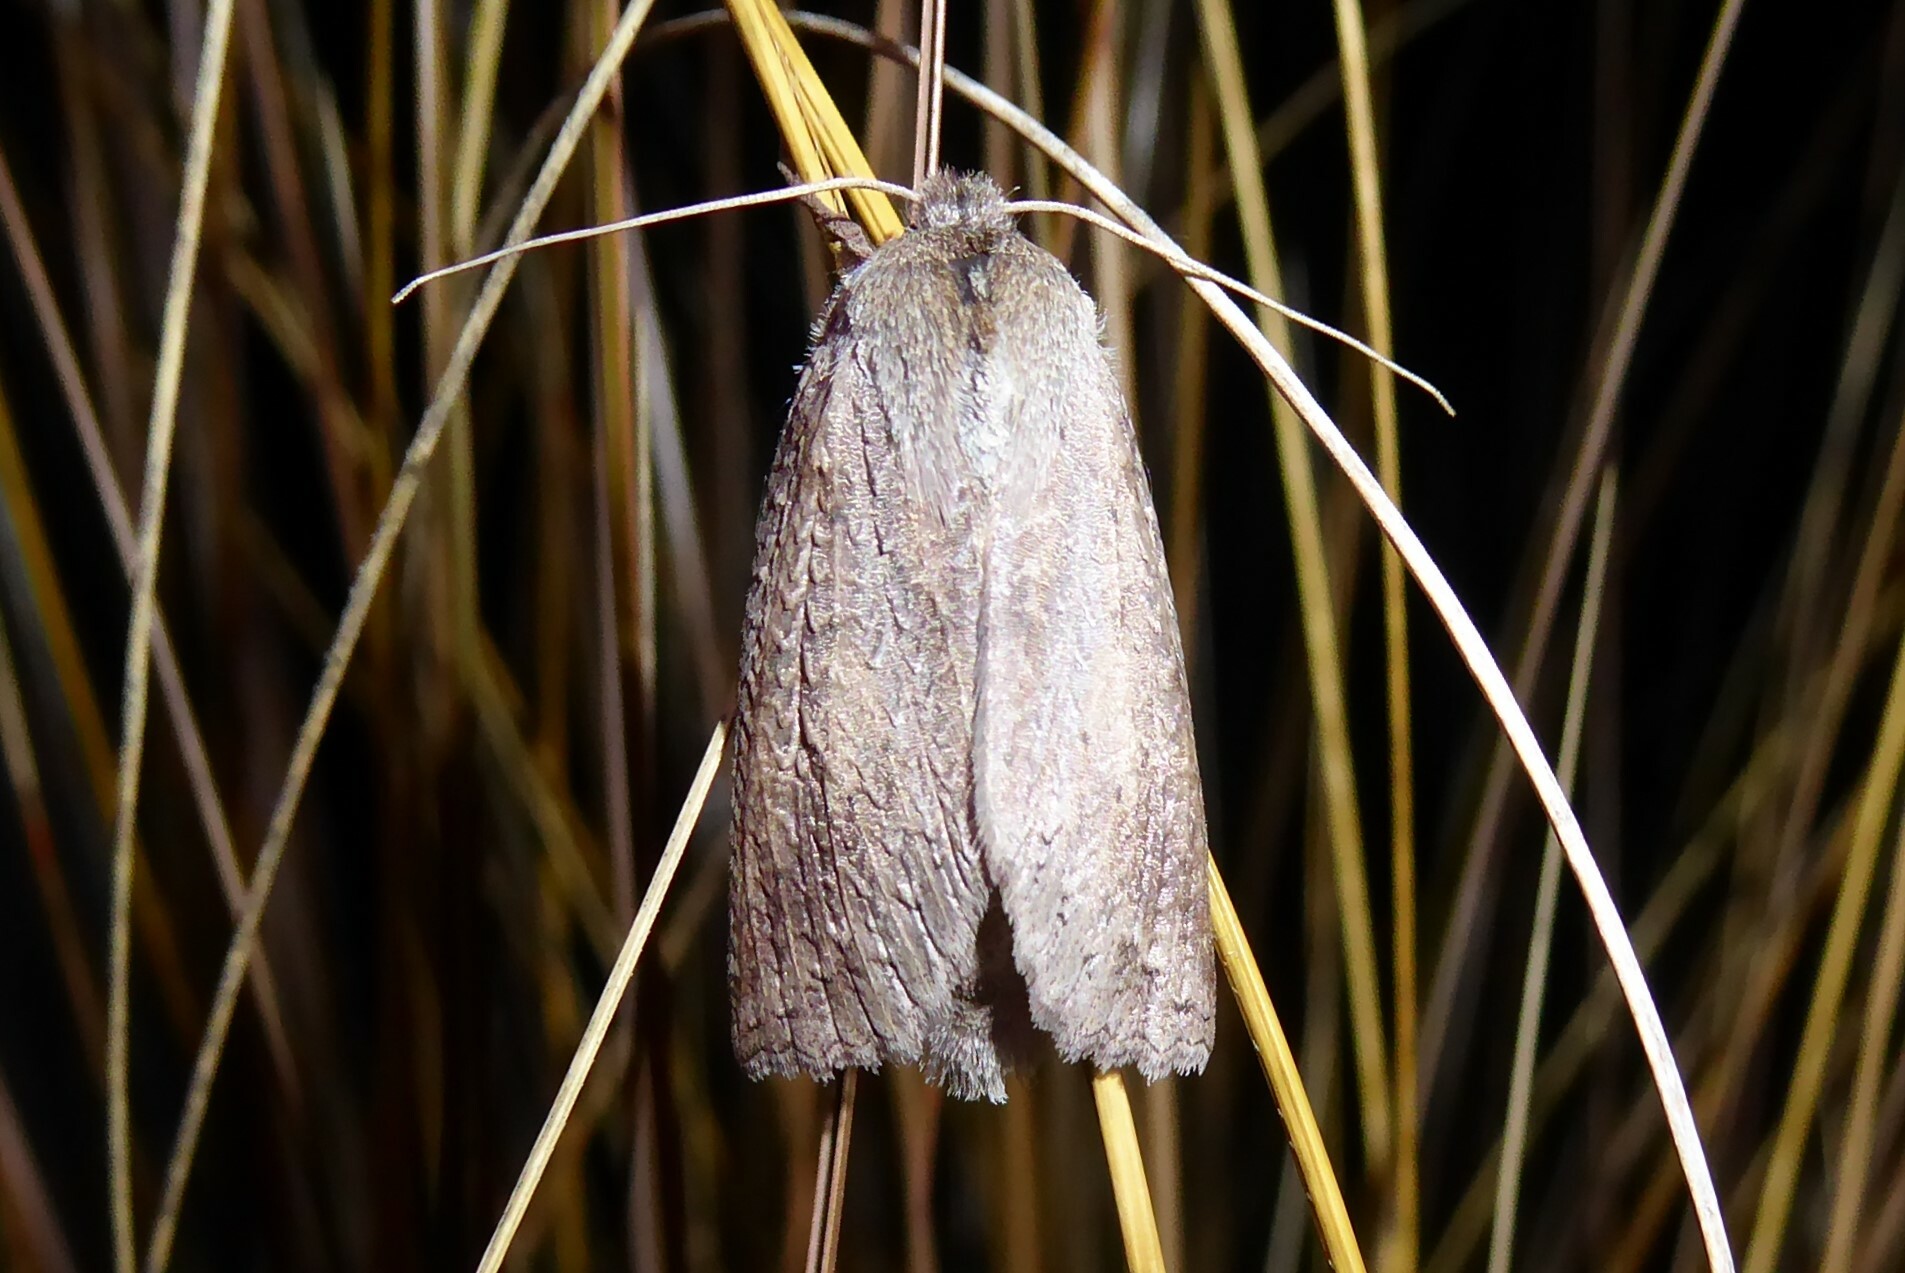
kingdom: Animalia
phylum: Arthropoda
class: Insecta
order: Lepidoptera
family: Geometridae
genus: Declana
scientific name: Declana leptomera
